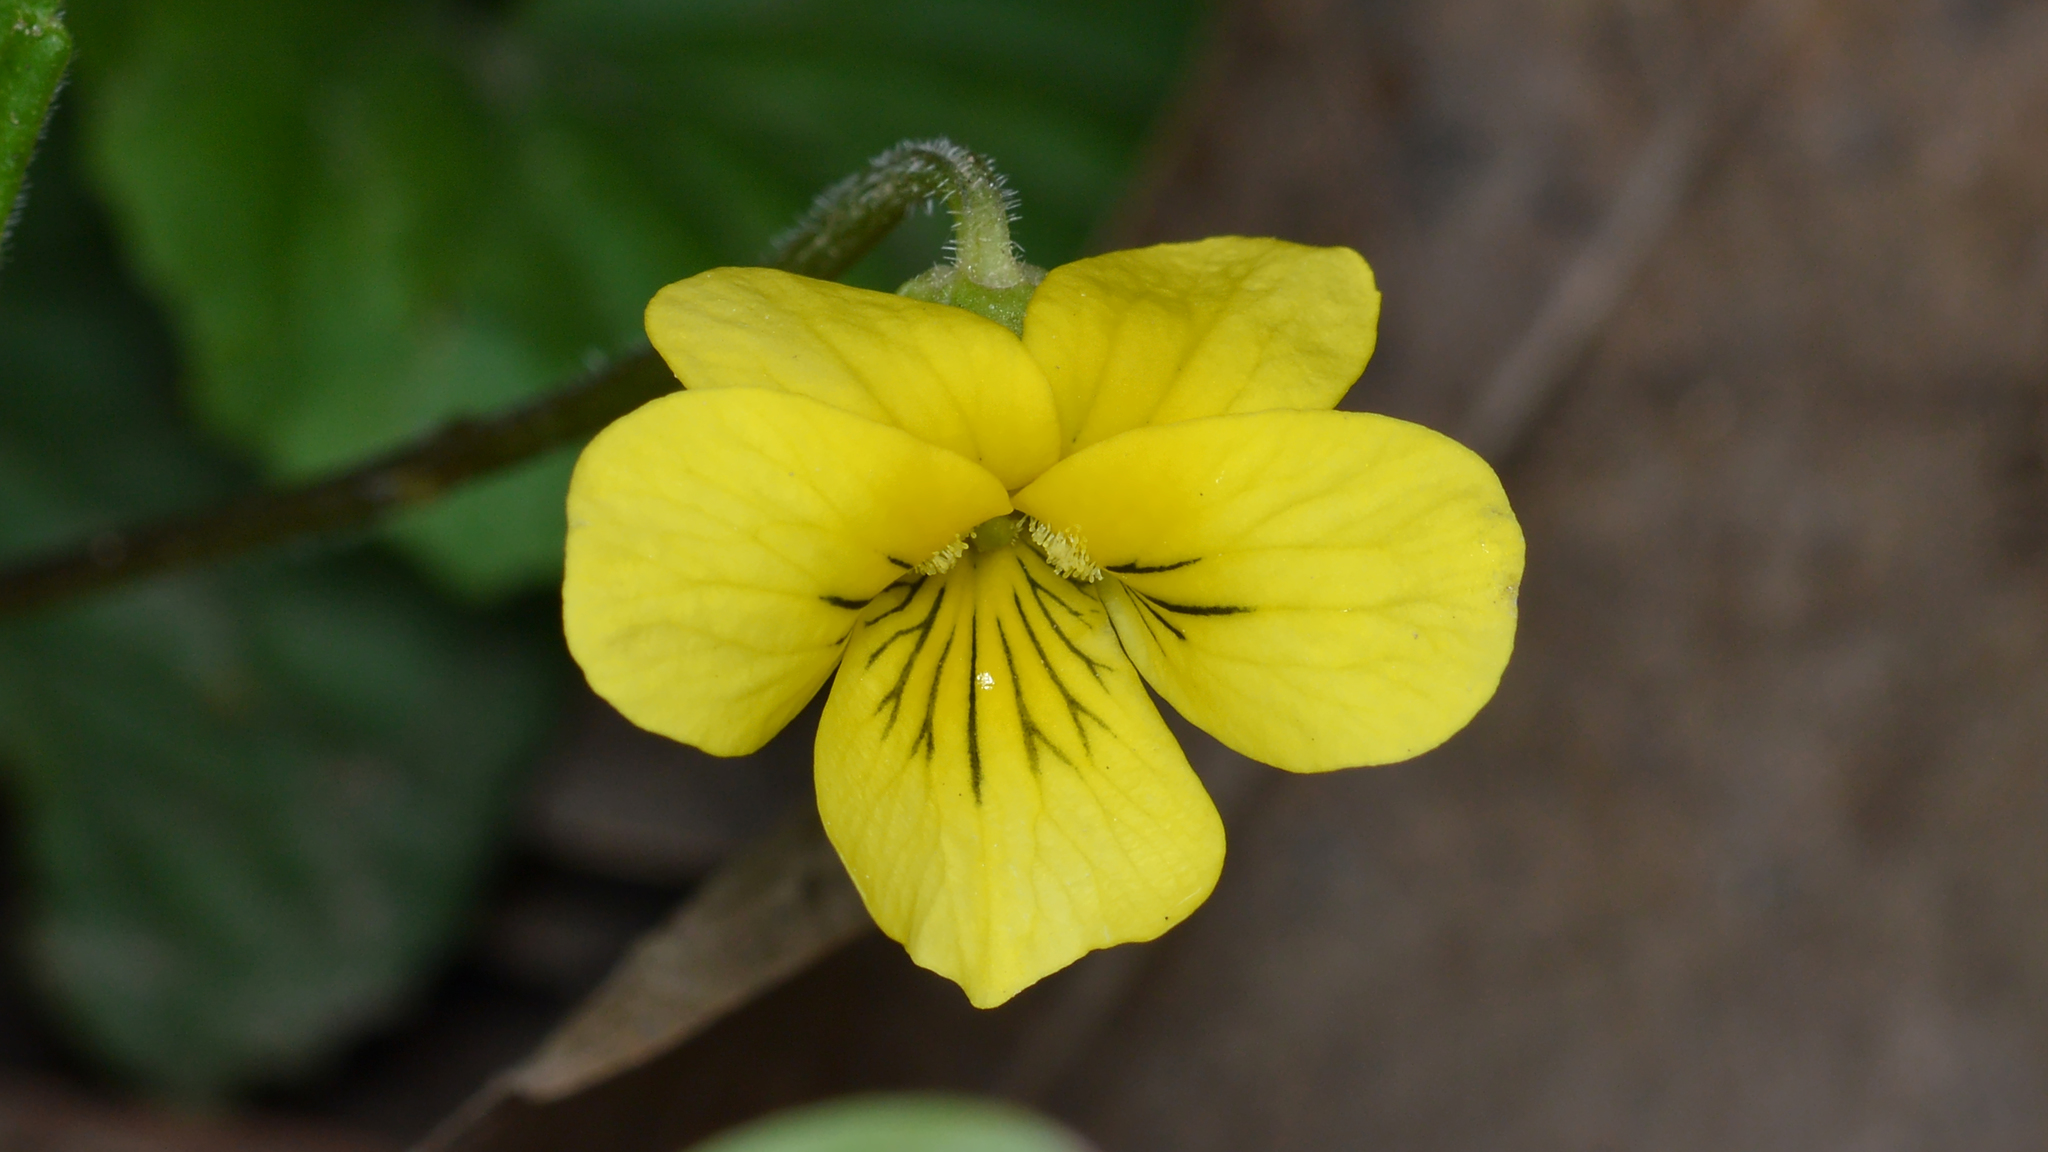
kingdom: Plantae
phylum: Tracheophyta
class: Magnoliopsida
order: Malpighiales
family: Violaceae
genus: Viola
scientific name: Viola eriocarpa
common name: Smooth yellow violet
